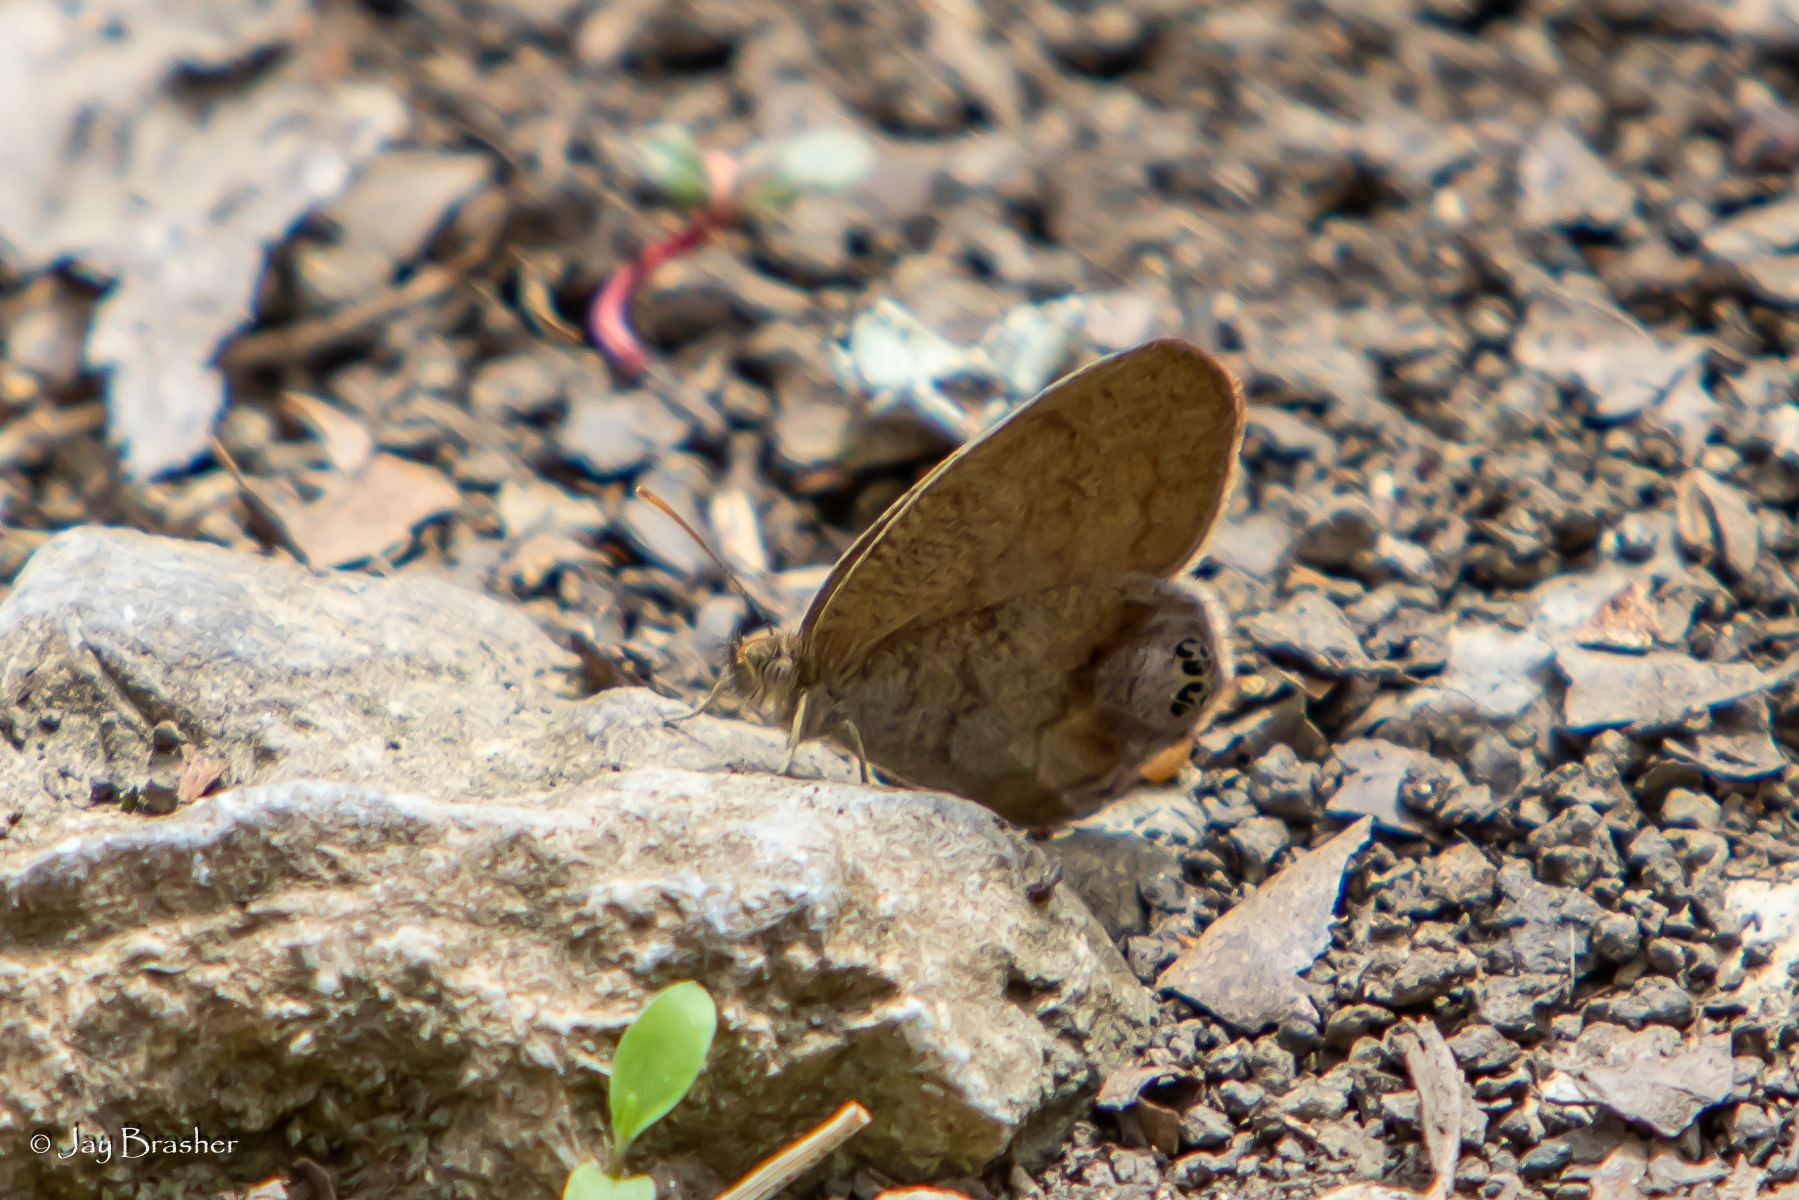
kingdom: Animalia
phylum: Arthropoda
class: Insecta
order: Lepidoptera
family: Nymphalidae
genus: Euptychia
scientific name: Euptychia cornelius
